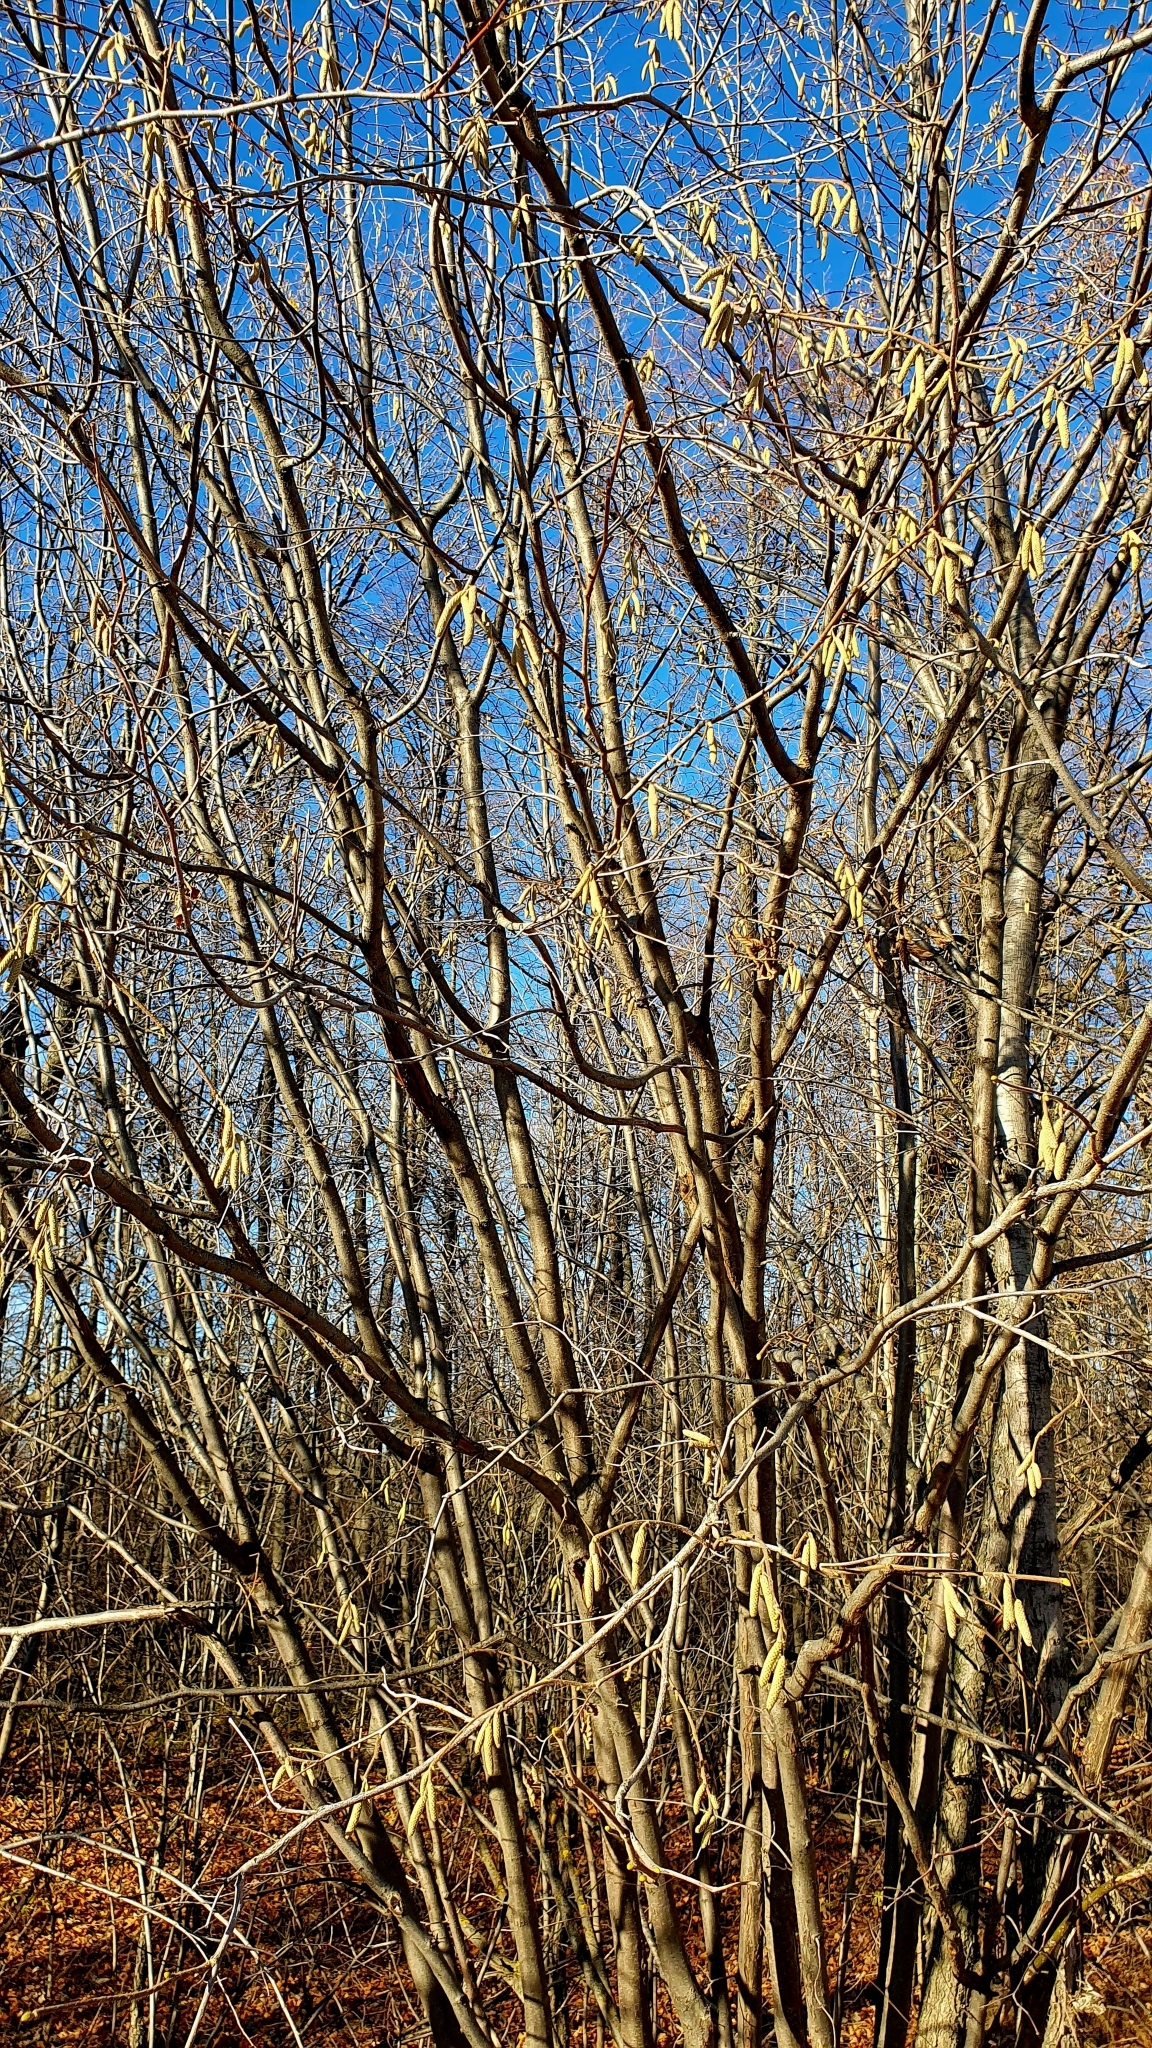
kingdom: Plantae
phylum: Tracheophyta
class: Magnoliopsida
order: Fagales
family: Betulaceae
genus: Corylus
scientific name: Corylus avellana
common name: European hazel
